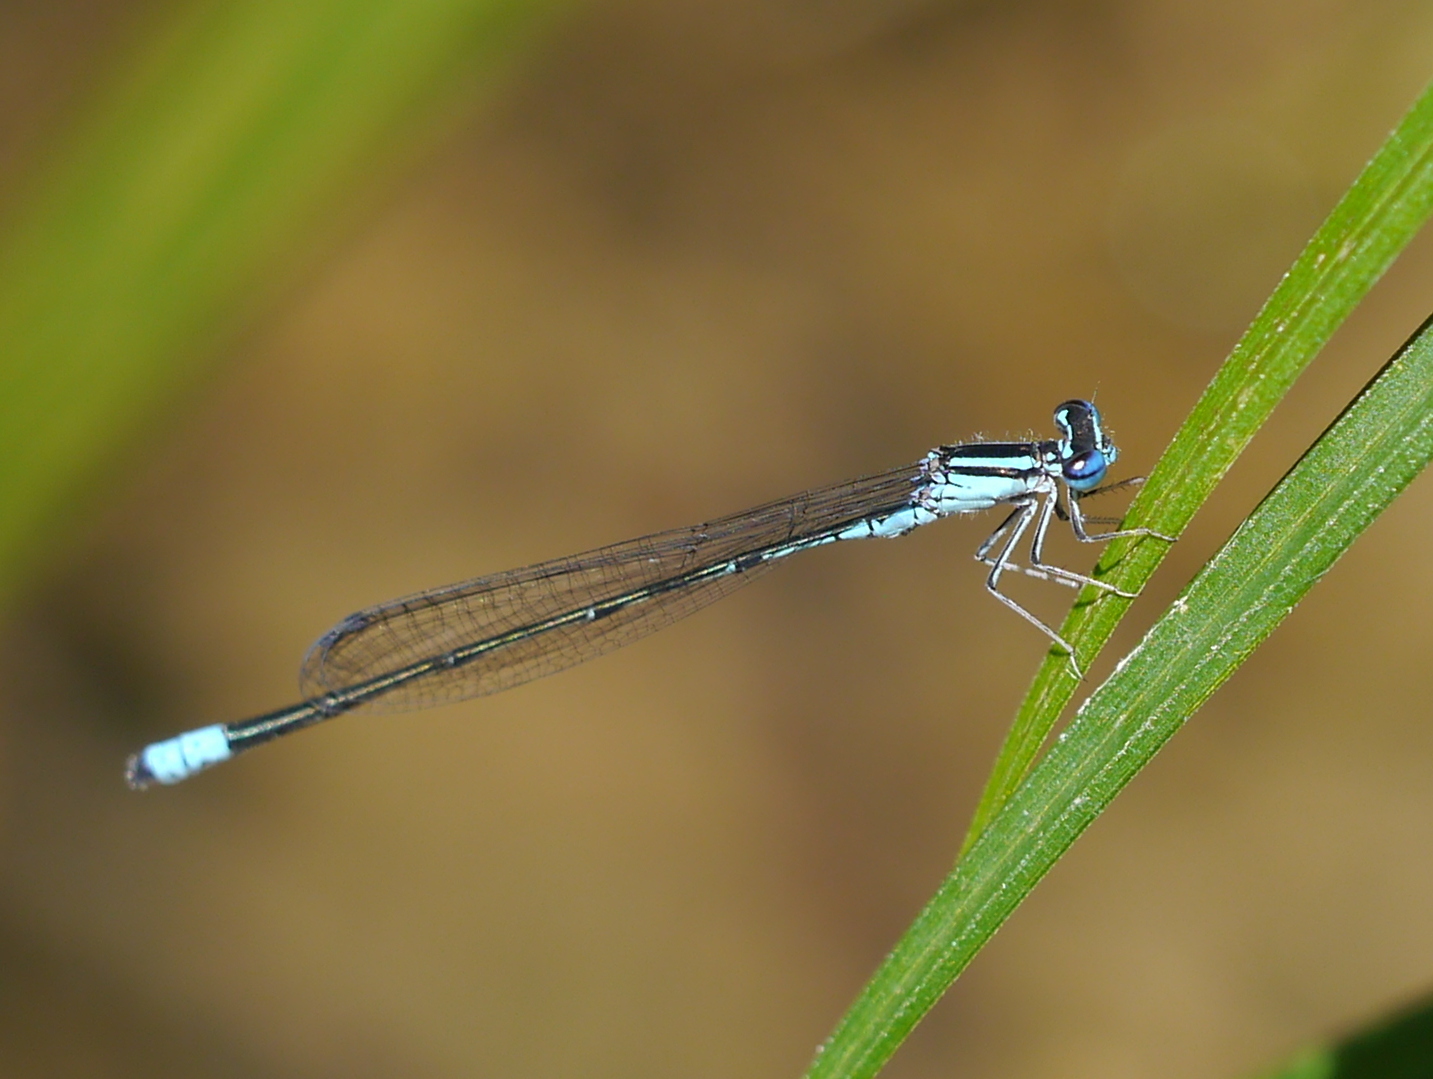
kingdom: Animalia
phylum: Arthropoda
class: Insecta
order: Odonata
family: Coenagrionidae
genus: Enallagma
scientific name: Enallagma divagans
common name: Turquoise bluet
